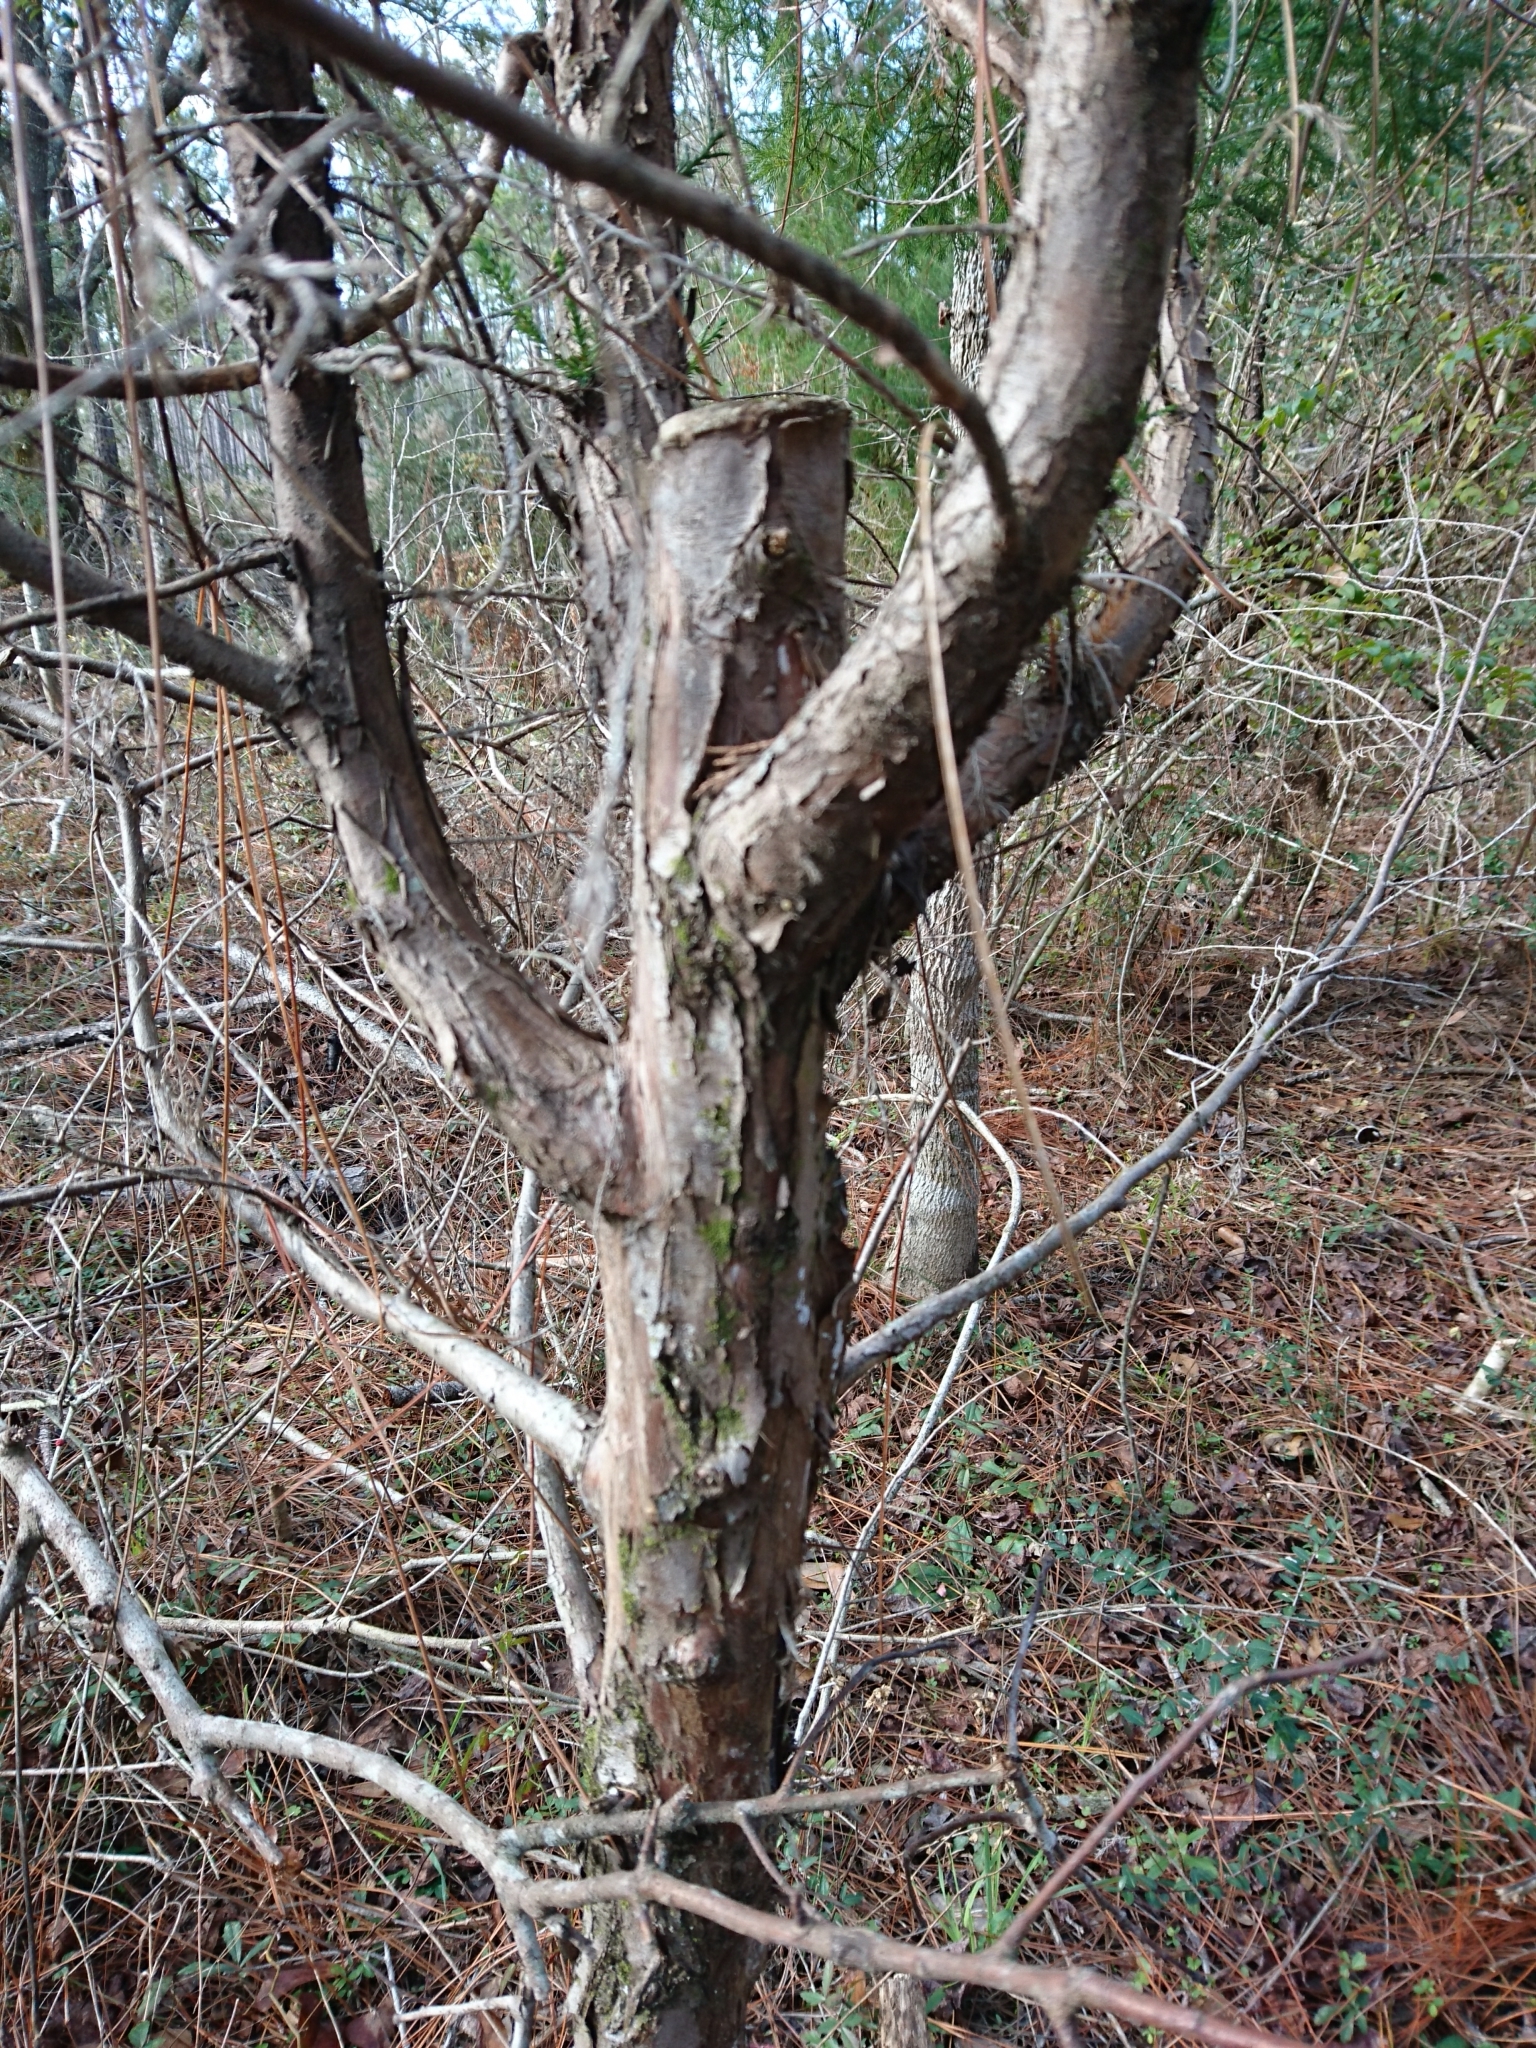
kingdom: Plantae
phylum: Tracheophyta
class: Pinopsida
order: Pinales
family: Cupressaceae
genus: Juniperus
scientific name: Juniperus virginiana
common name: Red juniper
